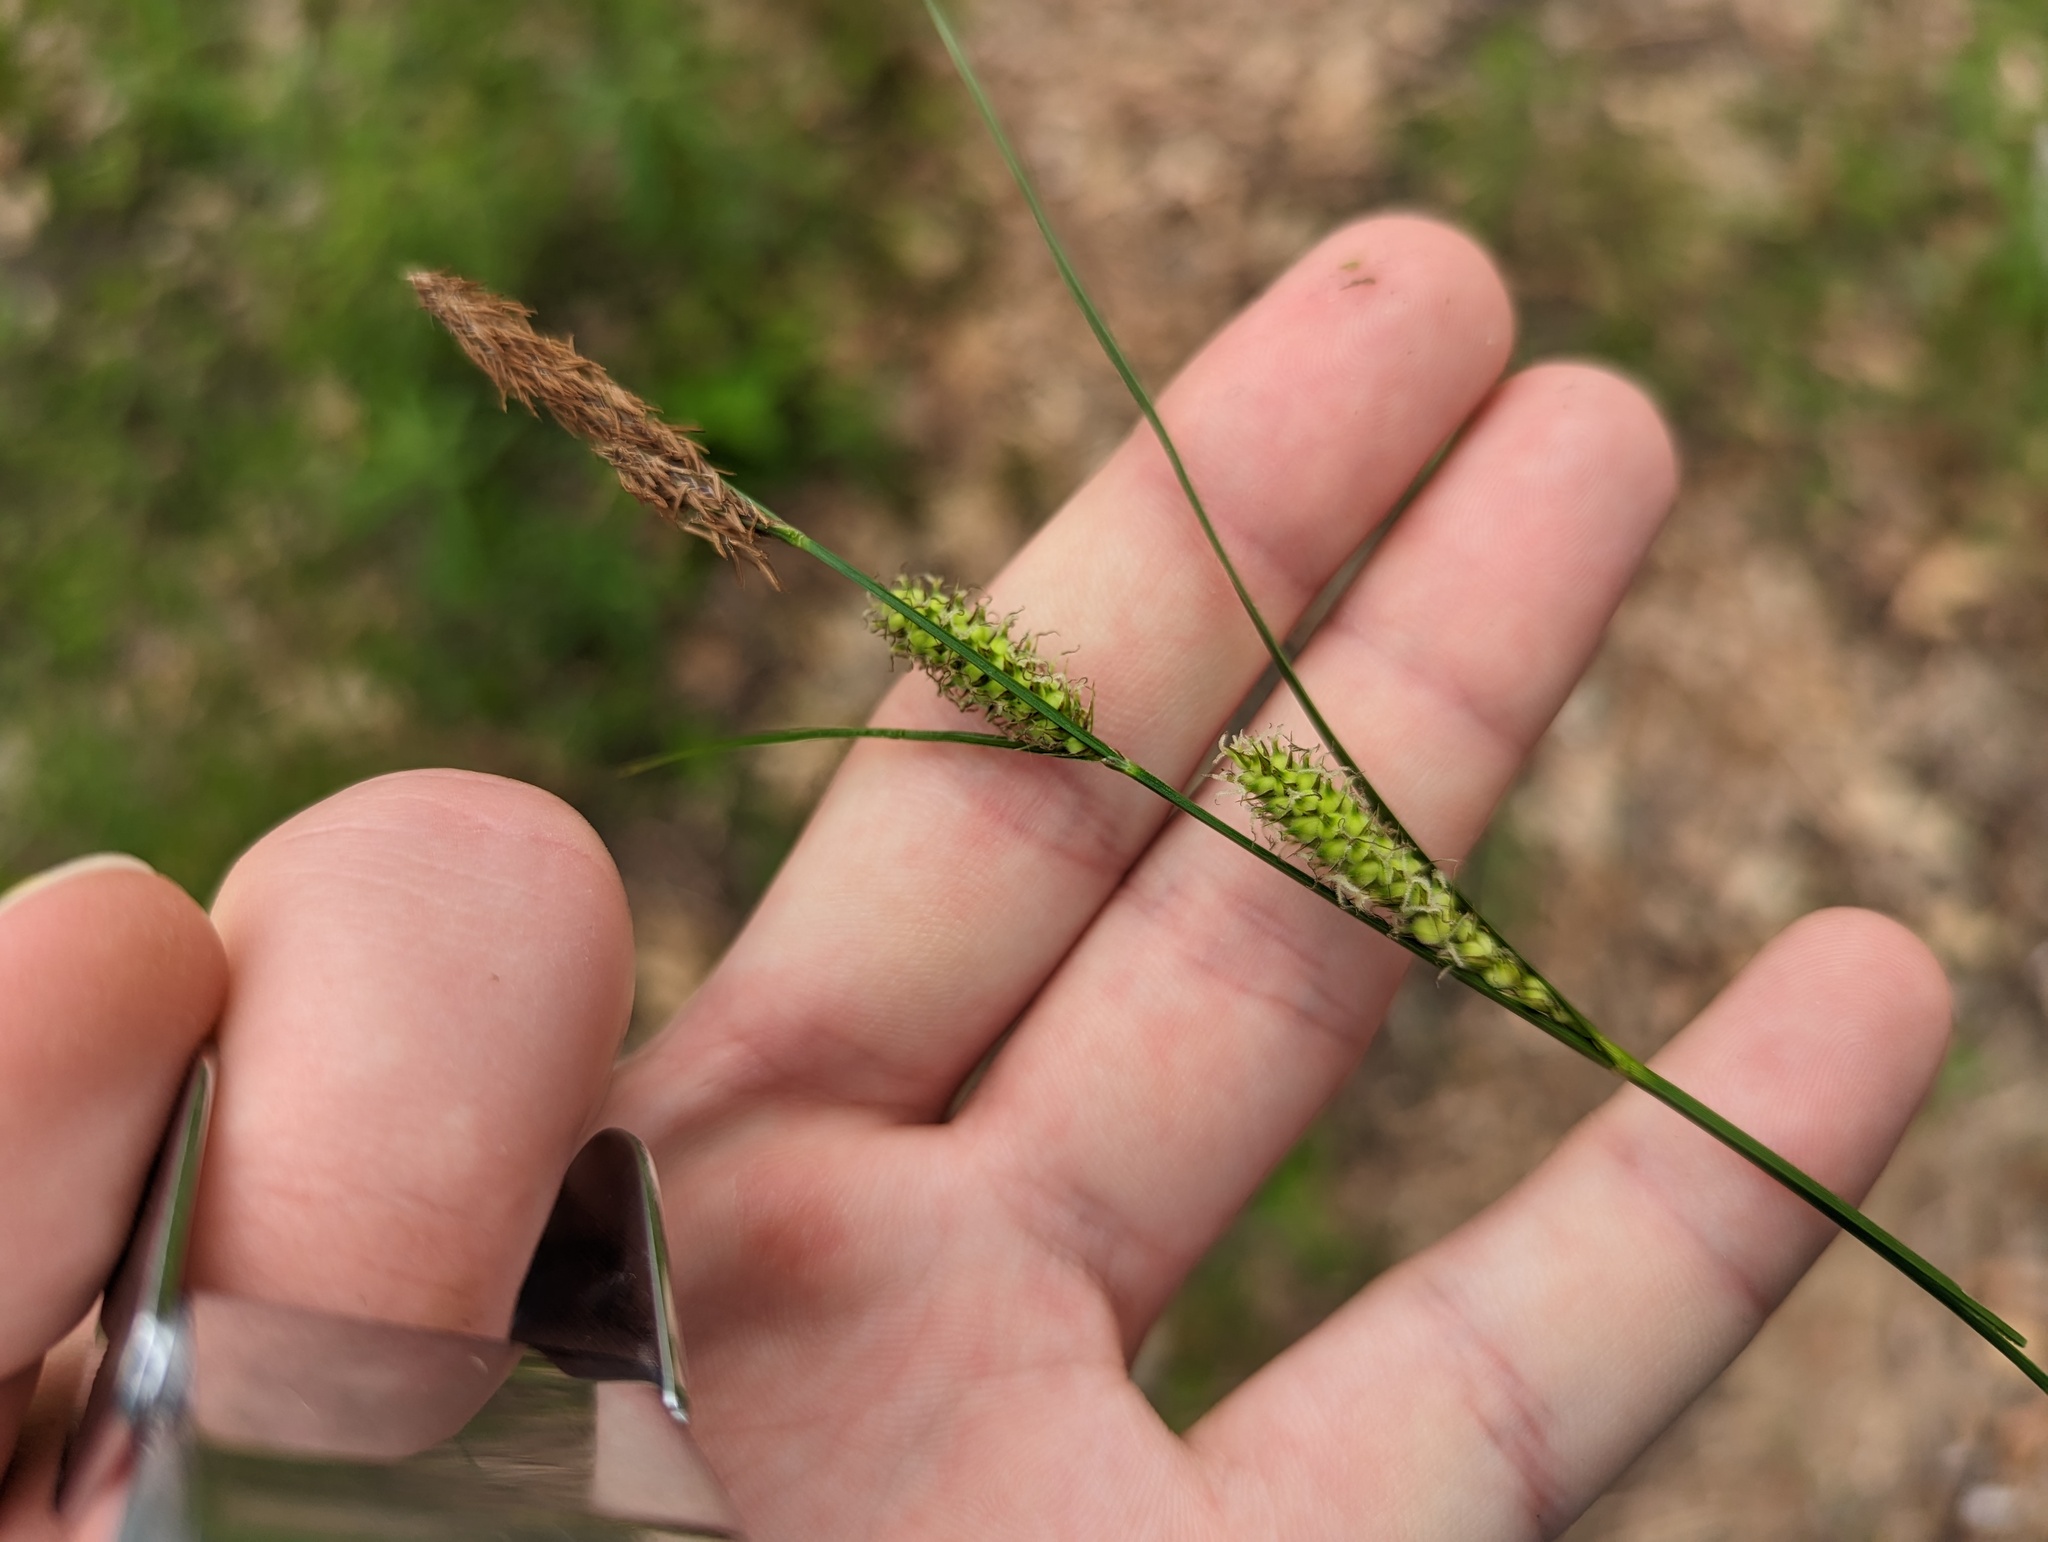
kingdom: Plantae
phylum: Tracheophyta
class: Liliopsida
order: Poales
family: Cyperaceae
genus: Carex
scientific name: Carex pellita
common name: Woolly sedge
